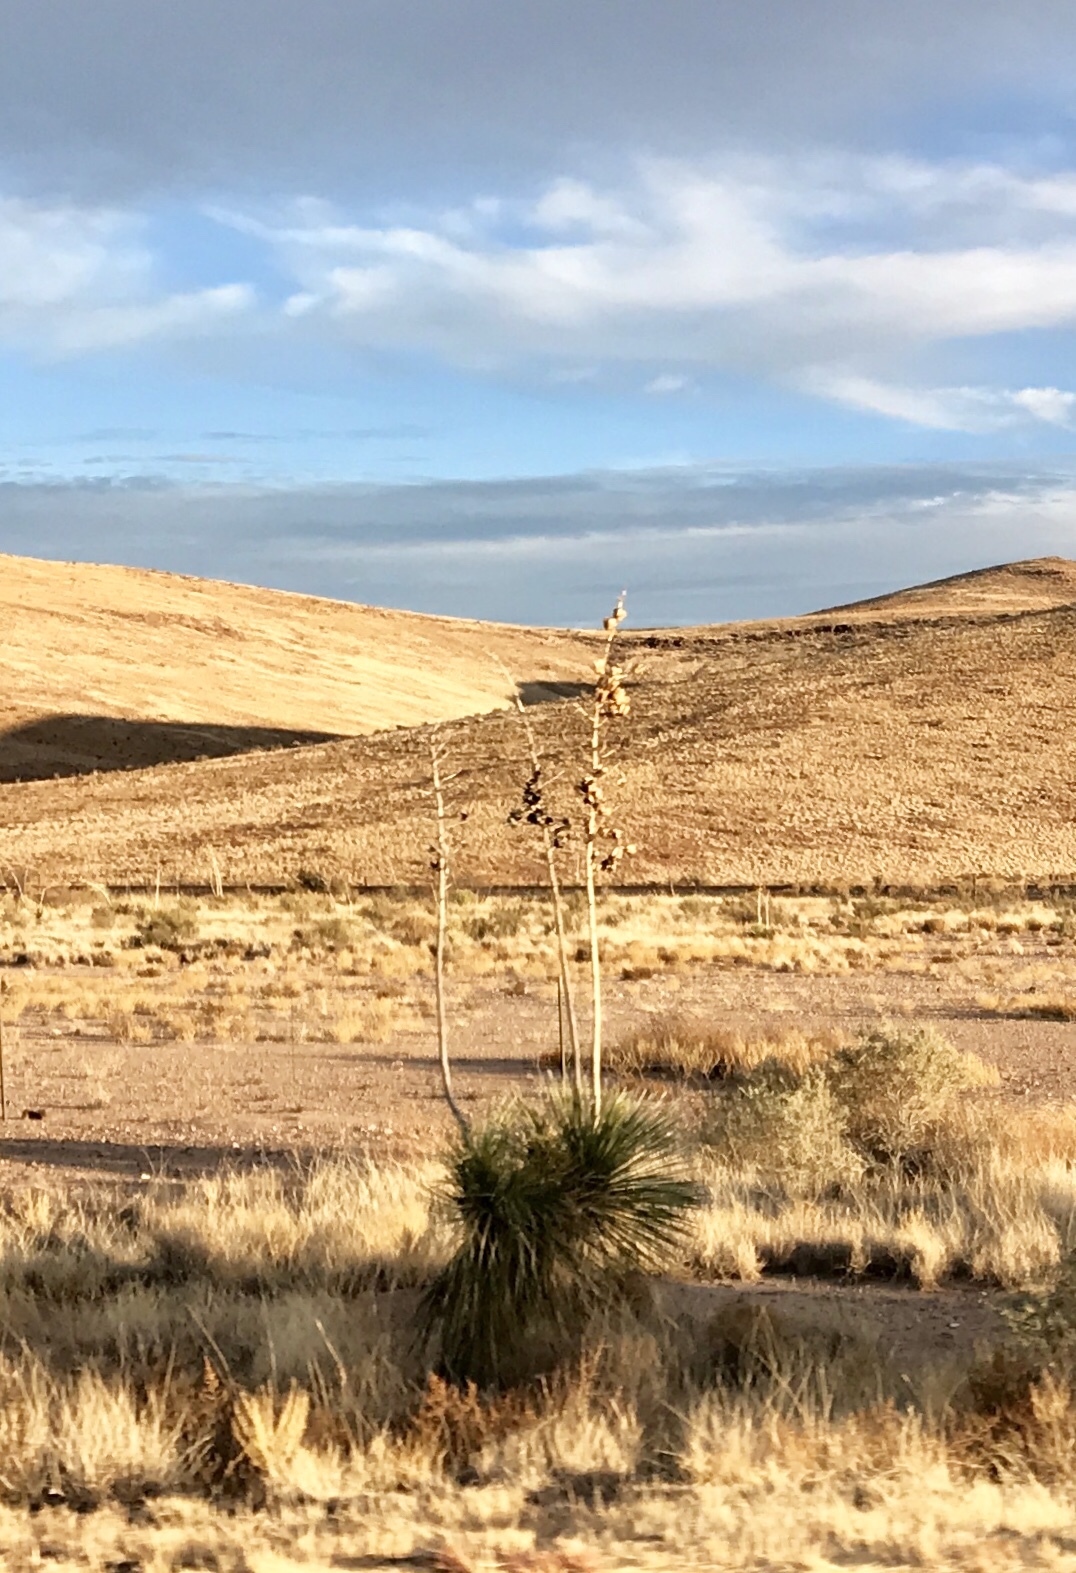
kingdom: Plantae
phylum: Tracheophyta
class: Liliopsida
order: Asparagales
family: Asparagaceae
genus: Yucca
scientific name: Yucca elata
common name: Palmella
